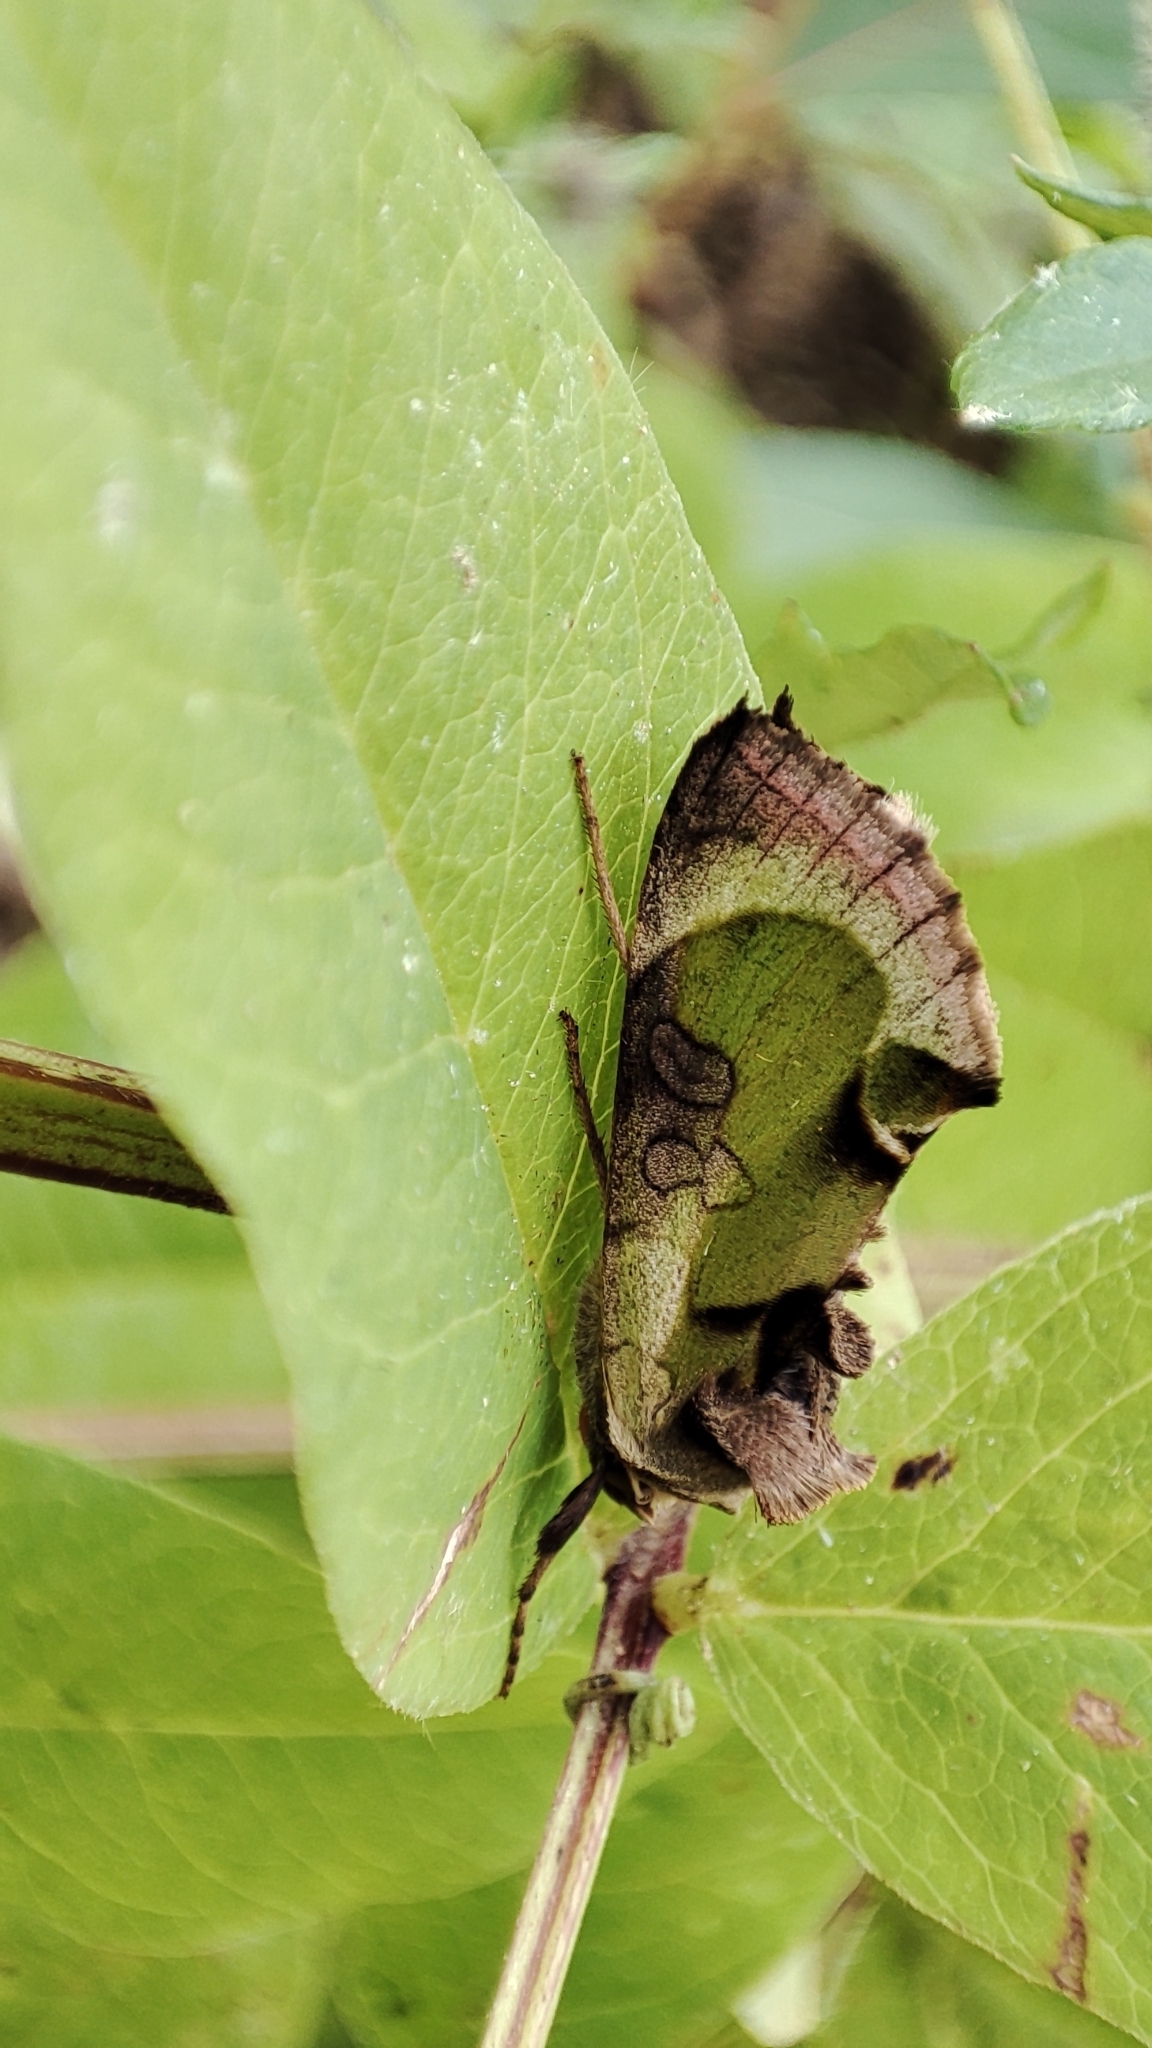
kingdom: Animalia
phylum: Arthropoda
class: Insecta
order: Lepidoptera
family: Noctuidae
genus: Diachrysia
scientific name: Diachrysia zosimi
